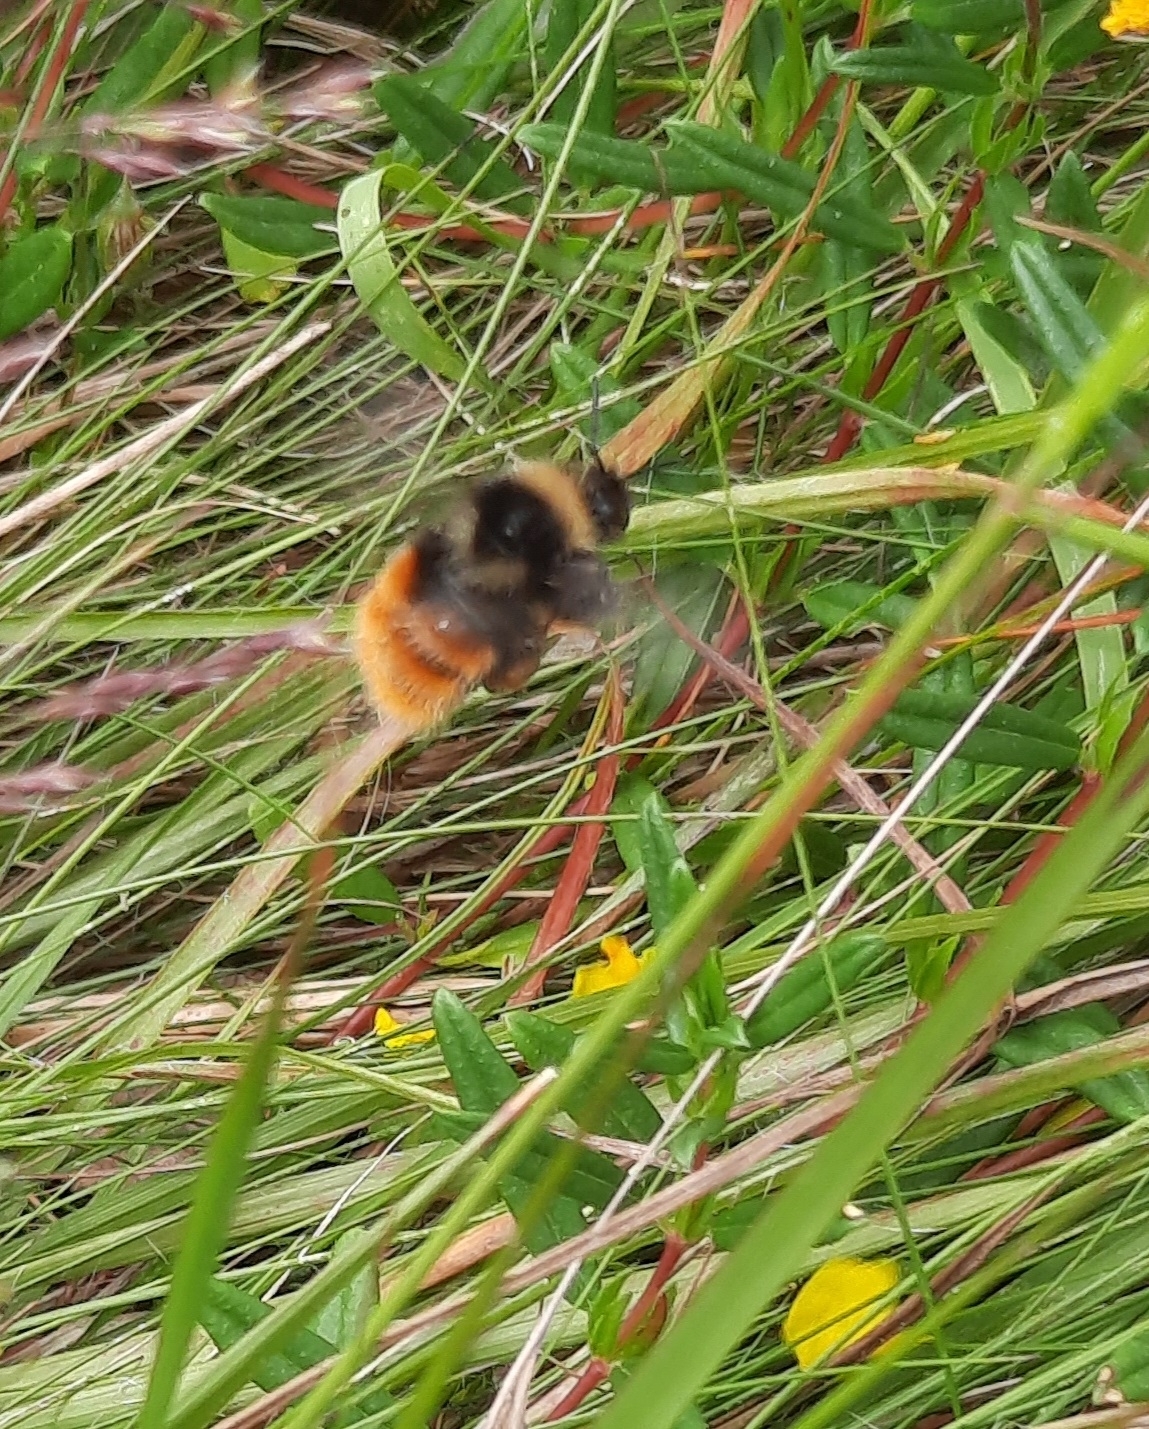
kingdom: Animalia
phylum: Arthropoda
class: Insecta
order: Hymenoptera
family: Apidae
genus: Bombus
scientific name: Bombus monticola
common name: Bilberry humble-bee
